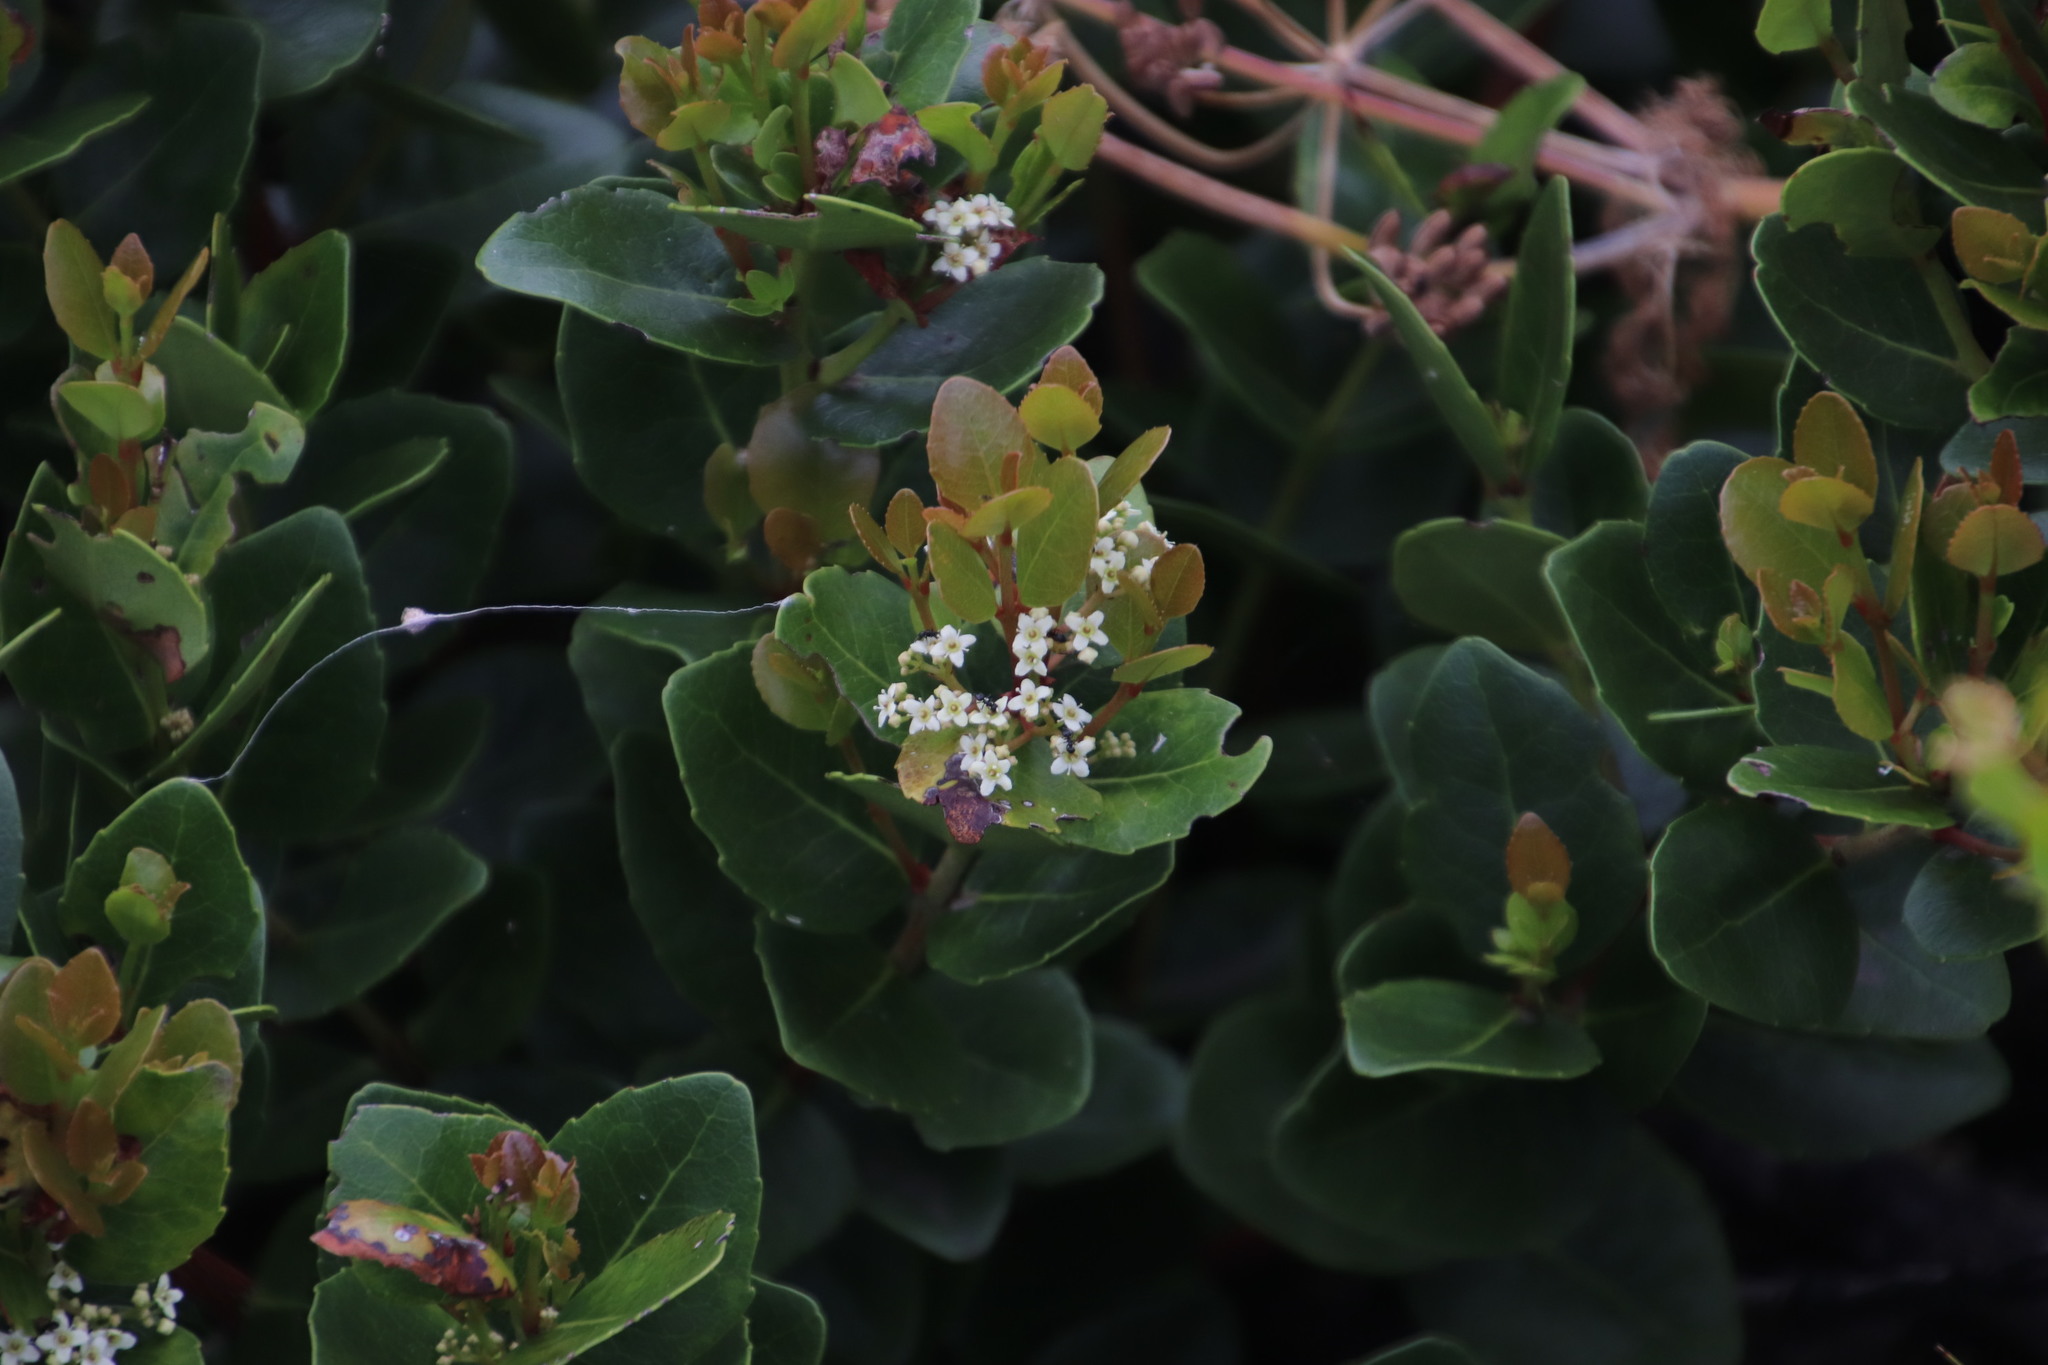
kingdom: Plantae
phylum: Tracheophyta
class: Magnoliopsida
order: Celastrales
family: Celastraceae
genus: Cassine
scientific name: Cassine peragua
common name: Cape saffron
